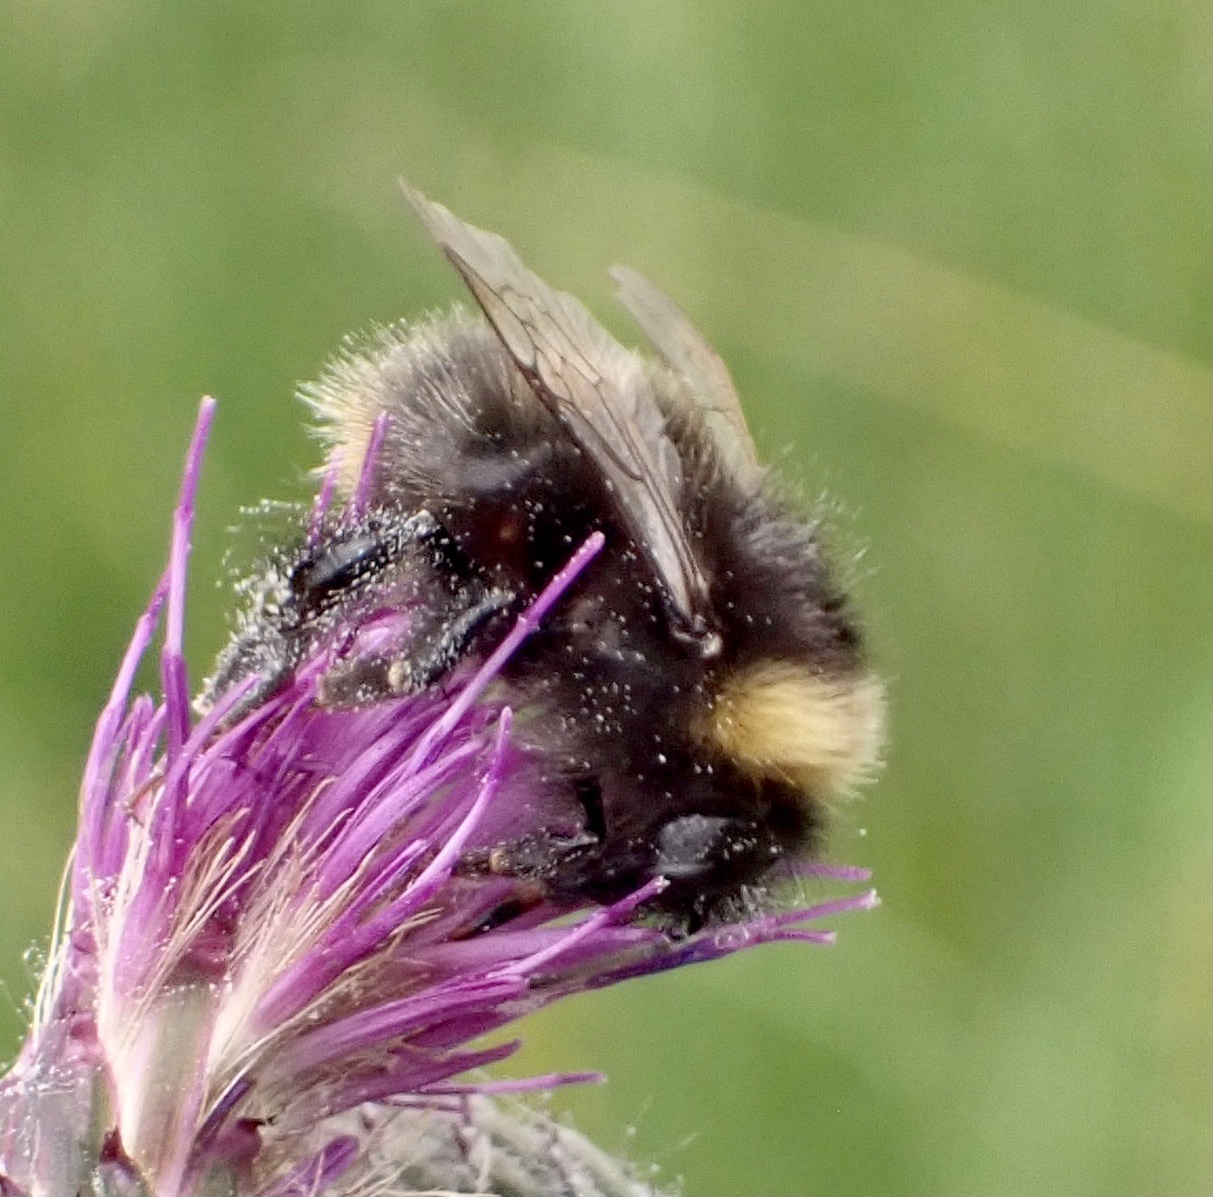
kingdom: Animalia
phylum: Arthropoda
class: Insecta
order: Hymenoptera
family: Apidae
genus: Bombus
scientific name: Bombus pratorum
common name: Early humble-bee
